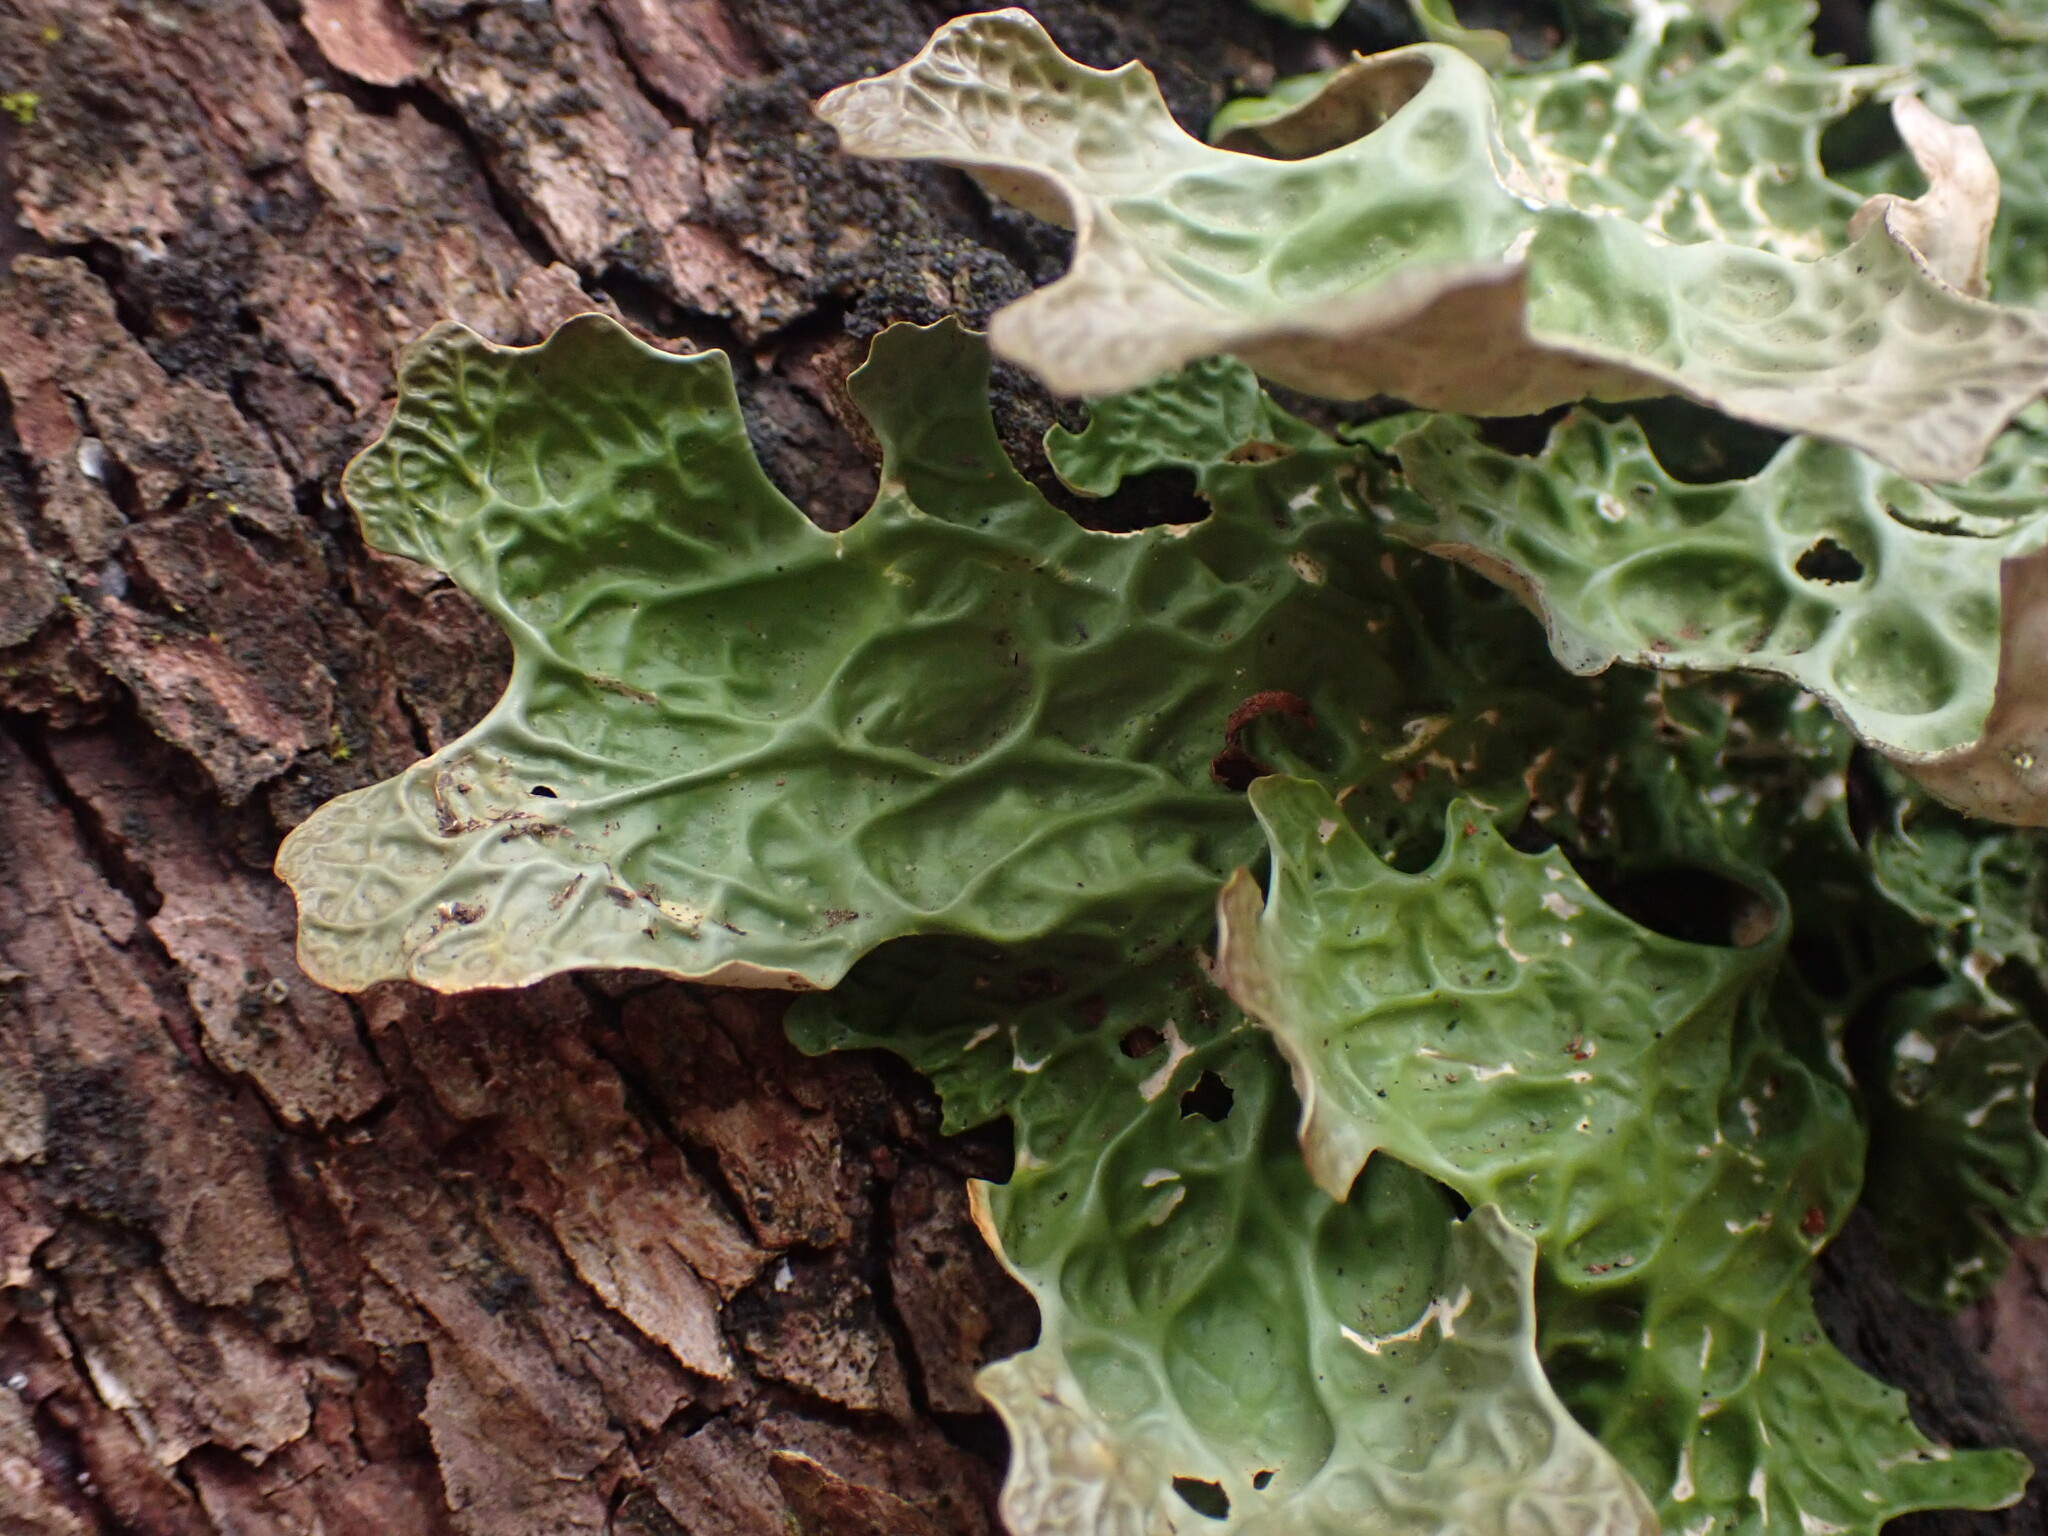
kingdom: Fungi
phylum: Ascomycota
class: Lecanoromycetes
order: Peltigerales
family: Lobariaceae
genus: Lobaria
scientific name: Lobaria pulmonaria
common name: Lungwort
